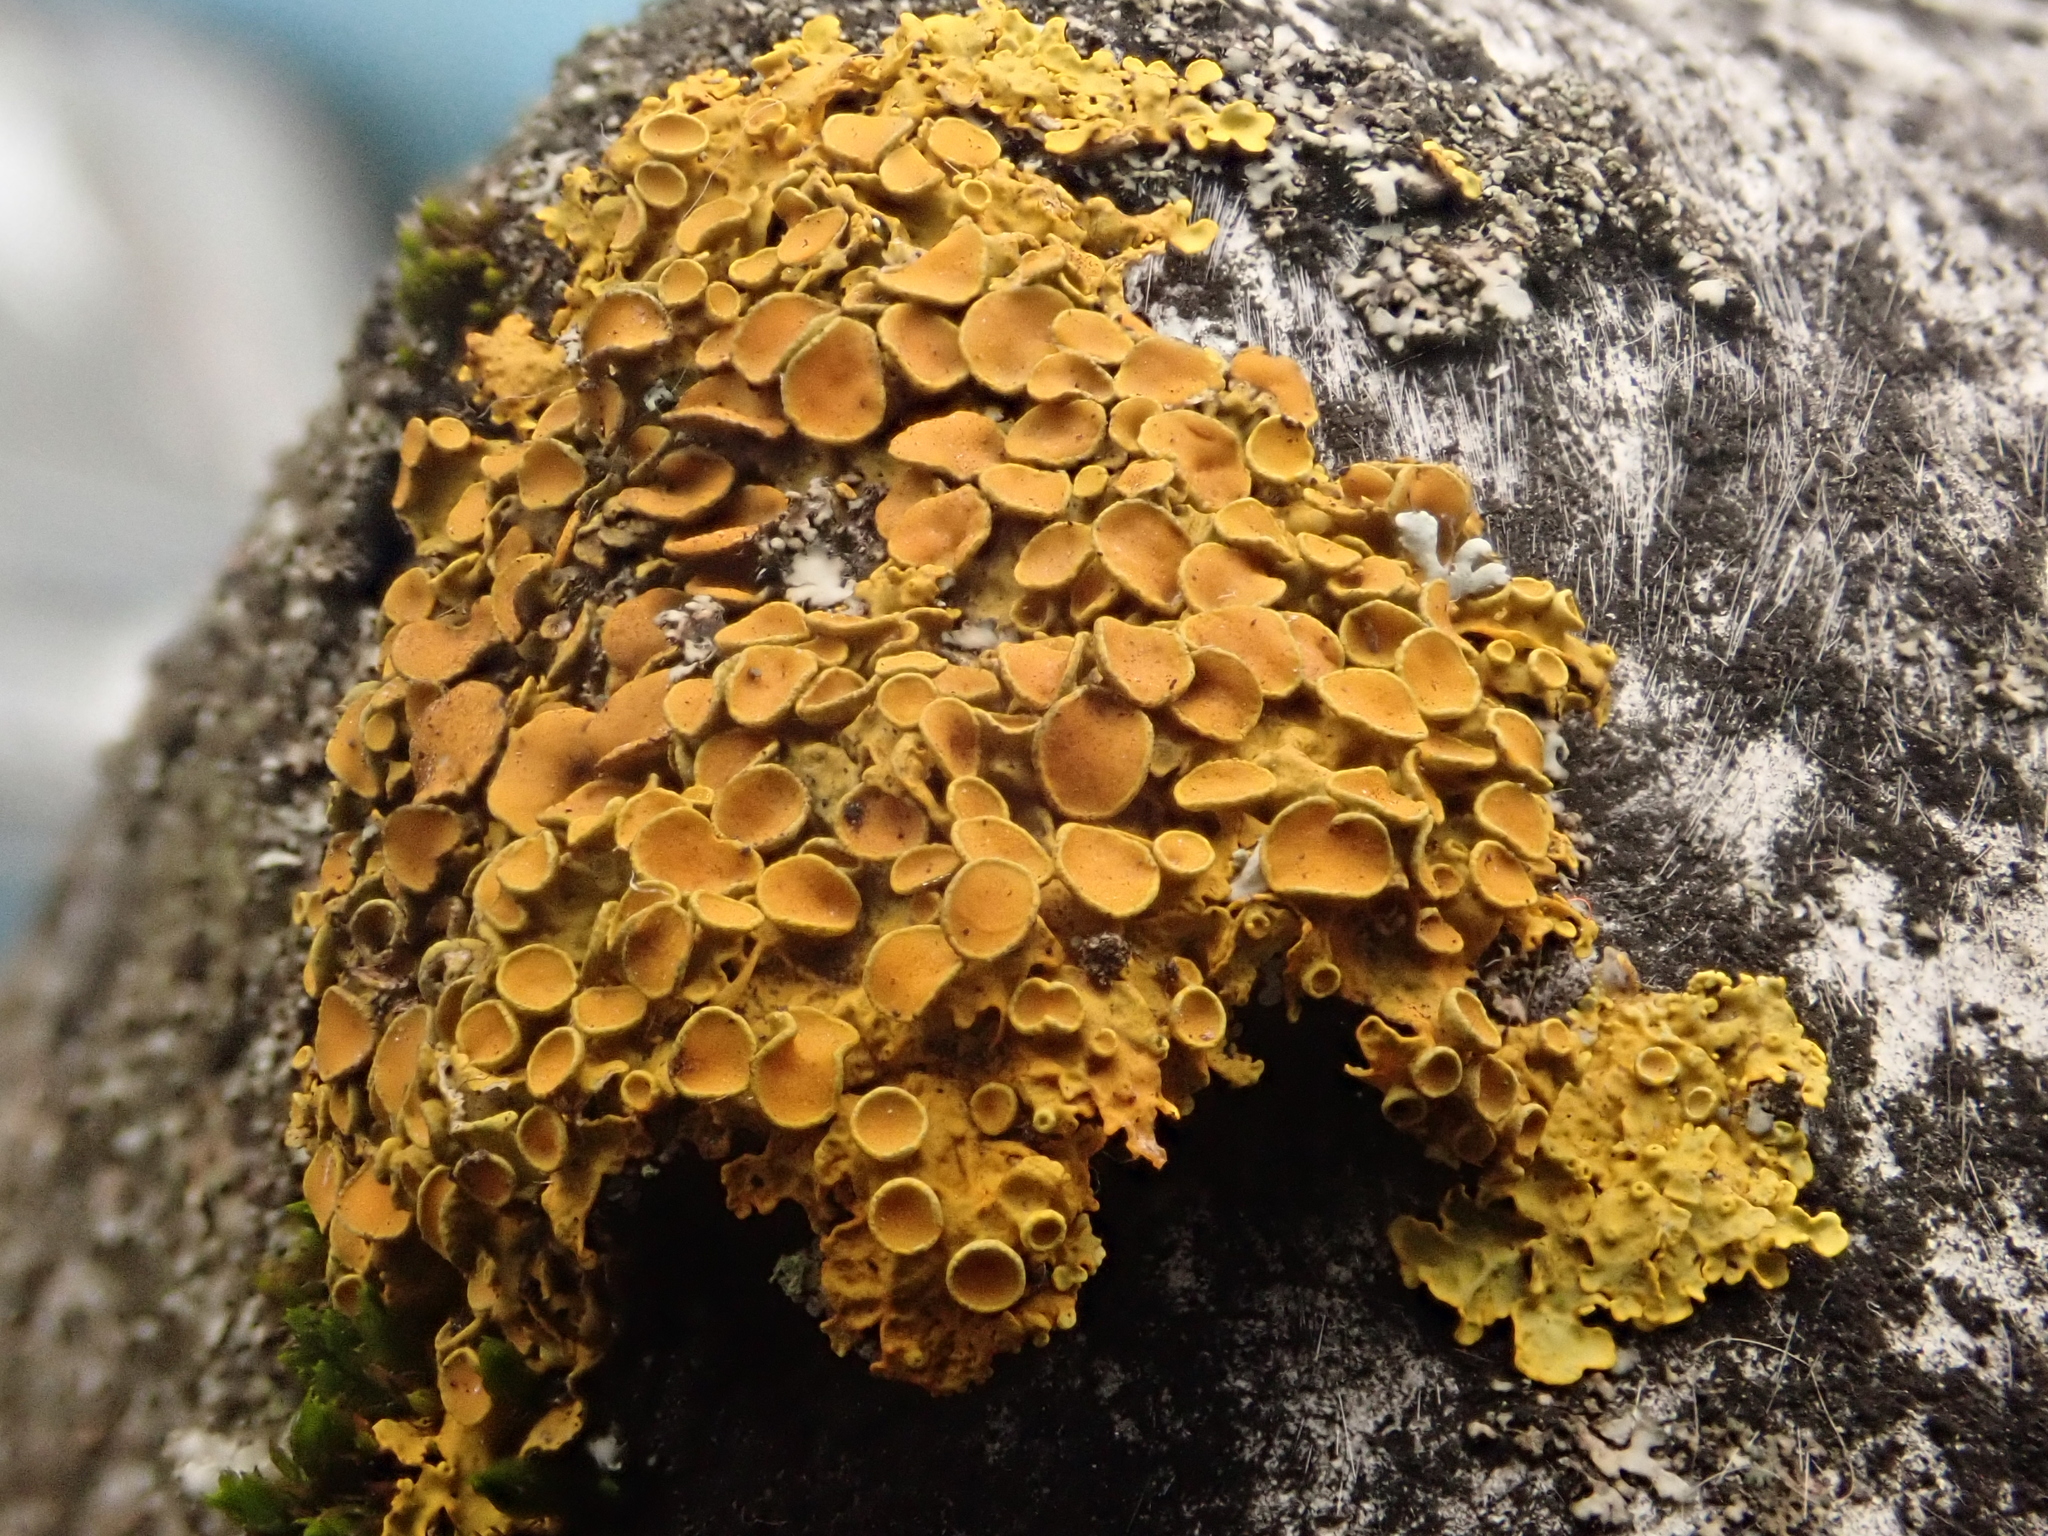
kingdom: Fungi
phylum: Ascomycota
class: Lecanoromycetes
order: Teloschistales
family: Teloschistaceae
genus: Xanthoria
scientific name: Xanthoria parietina
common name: Common orange lichen
